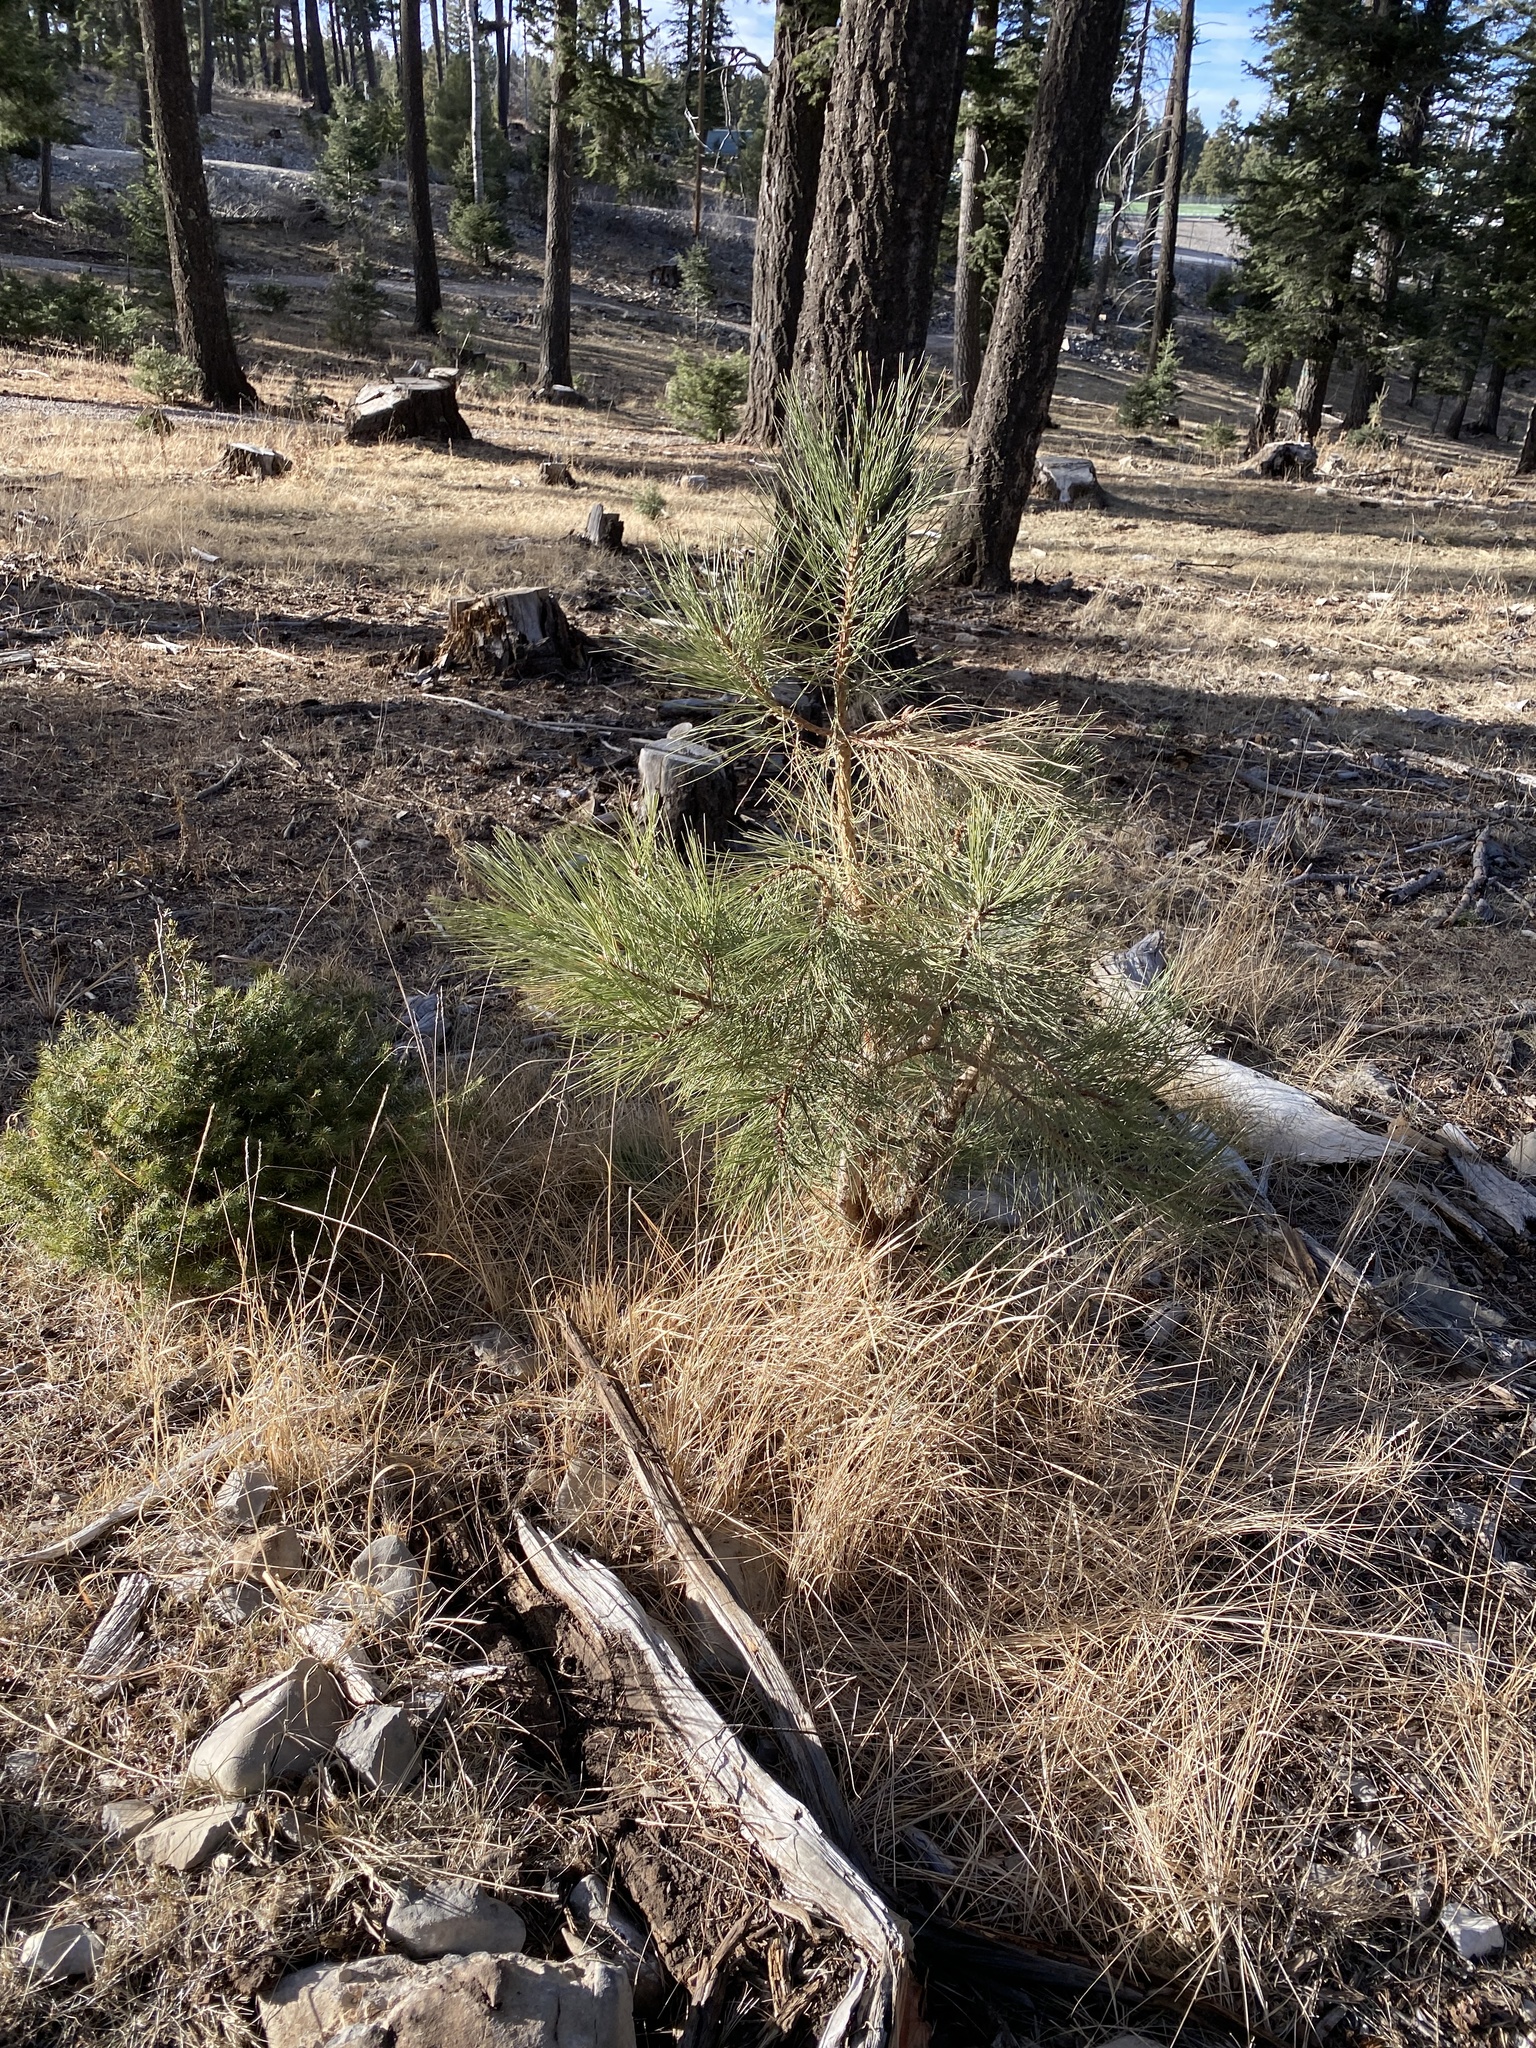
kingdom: Plantae
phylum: Tracheophyta
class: Pinopsida
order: Pinales
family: Pinaceae
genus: Pinus
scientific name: Pinus ponderosa
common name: Western yellow-pine
